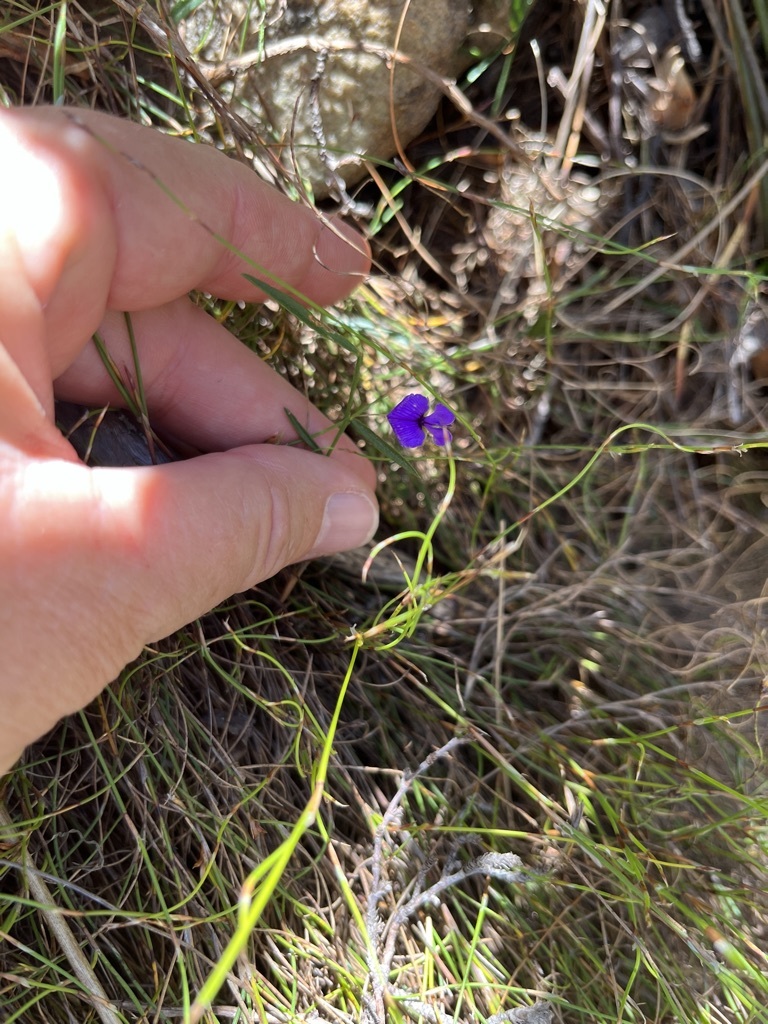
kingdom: Plantae
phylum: Tracheophyta
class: Magnoliopsida
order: Fabales
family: Fabaceae
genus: Psoralea
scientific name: Psoralea laxa
